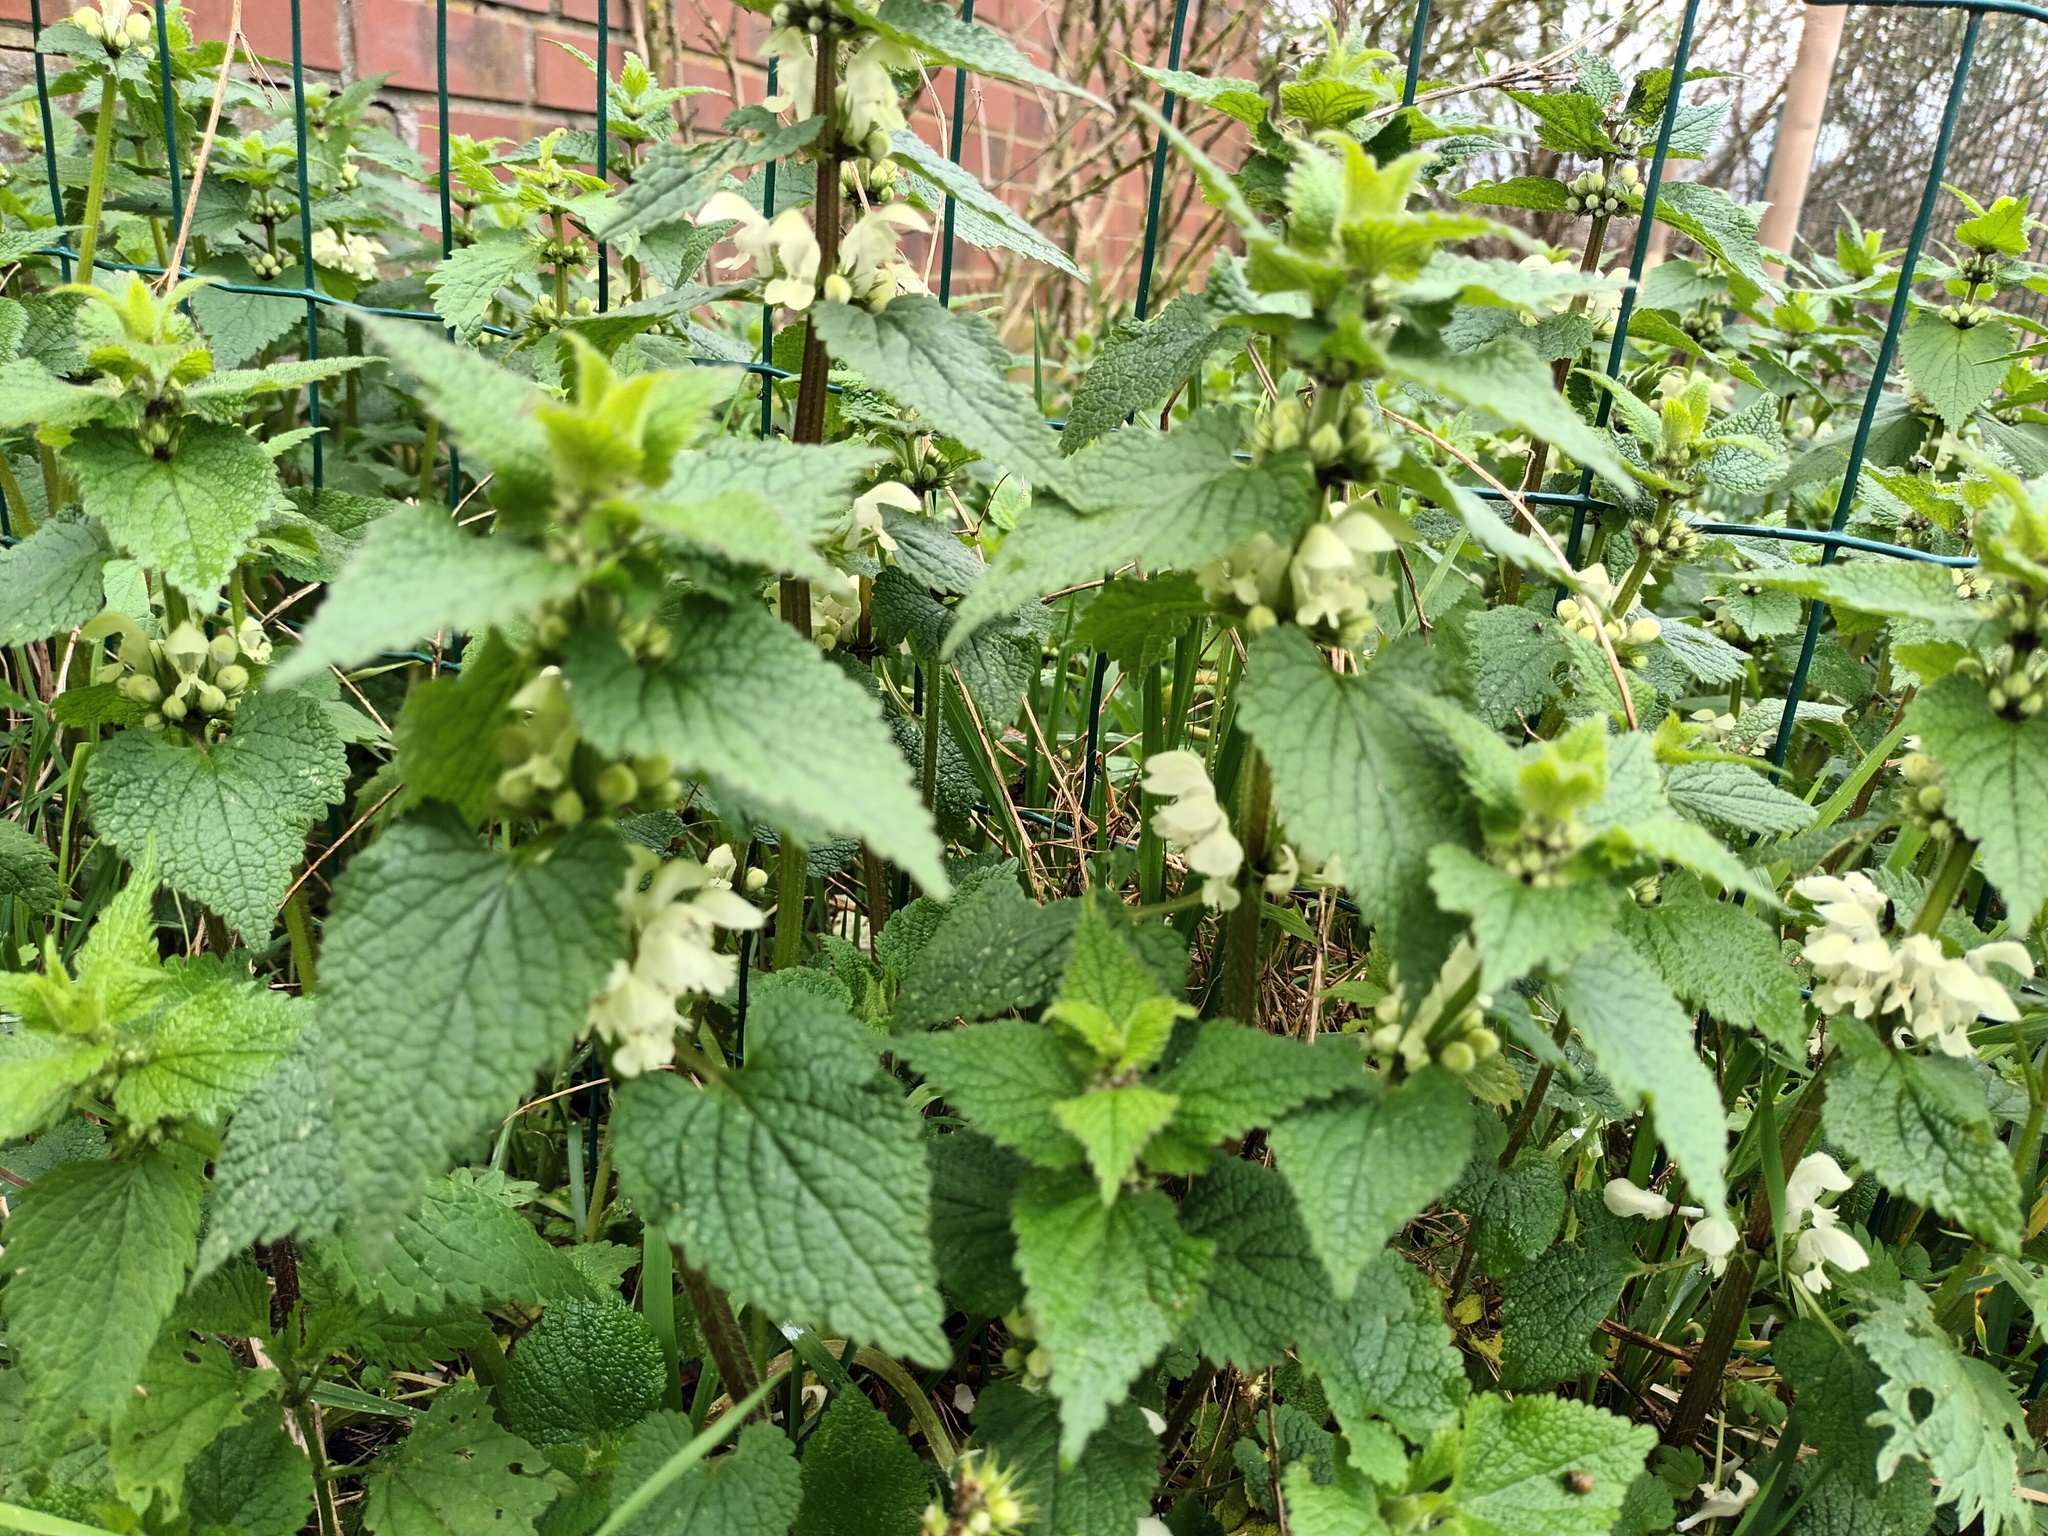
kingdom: Plantae
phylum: Tracheophyta
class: Magnoliopsida
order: Lamiales
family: Lamiaceae
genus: Lamium
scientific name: Lamium album
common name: White dead-nettle
